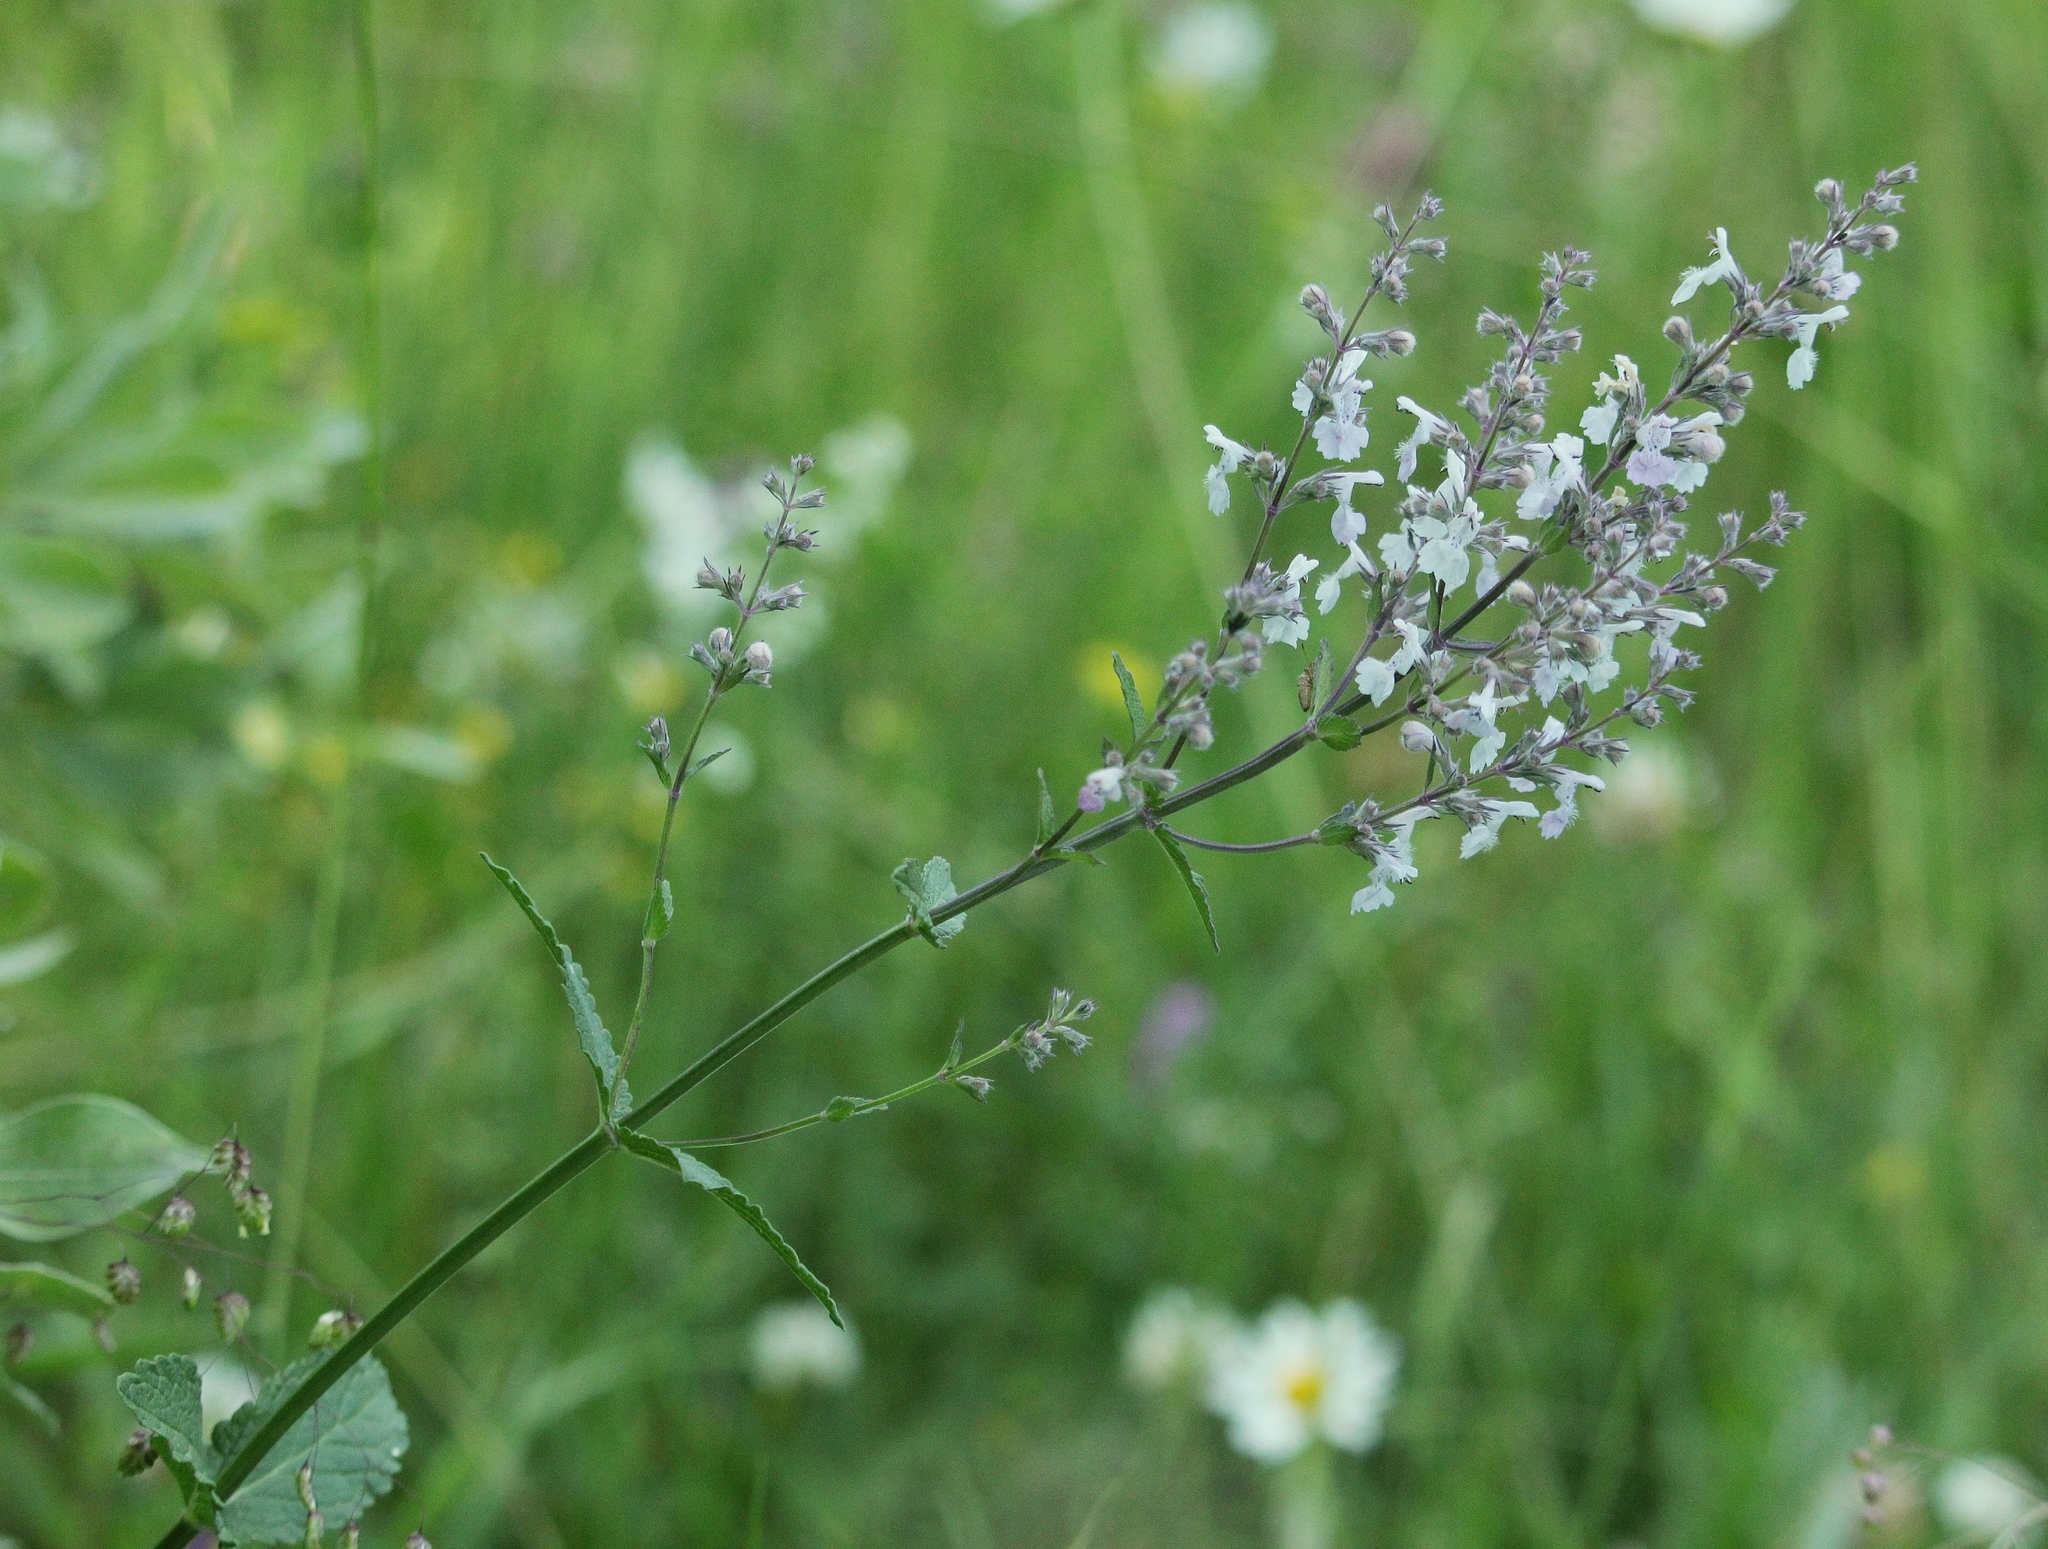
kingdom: Plantae
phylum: Tracheophyta
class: Magnoliopsida
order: Lamiales
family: Lamiaceae
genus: Nepeta
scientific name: Nepeta nuda
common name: Hairless catmint
